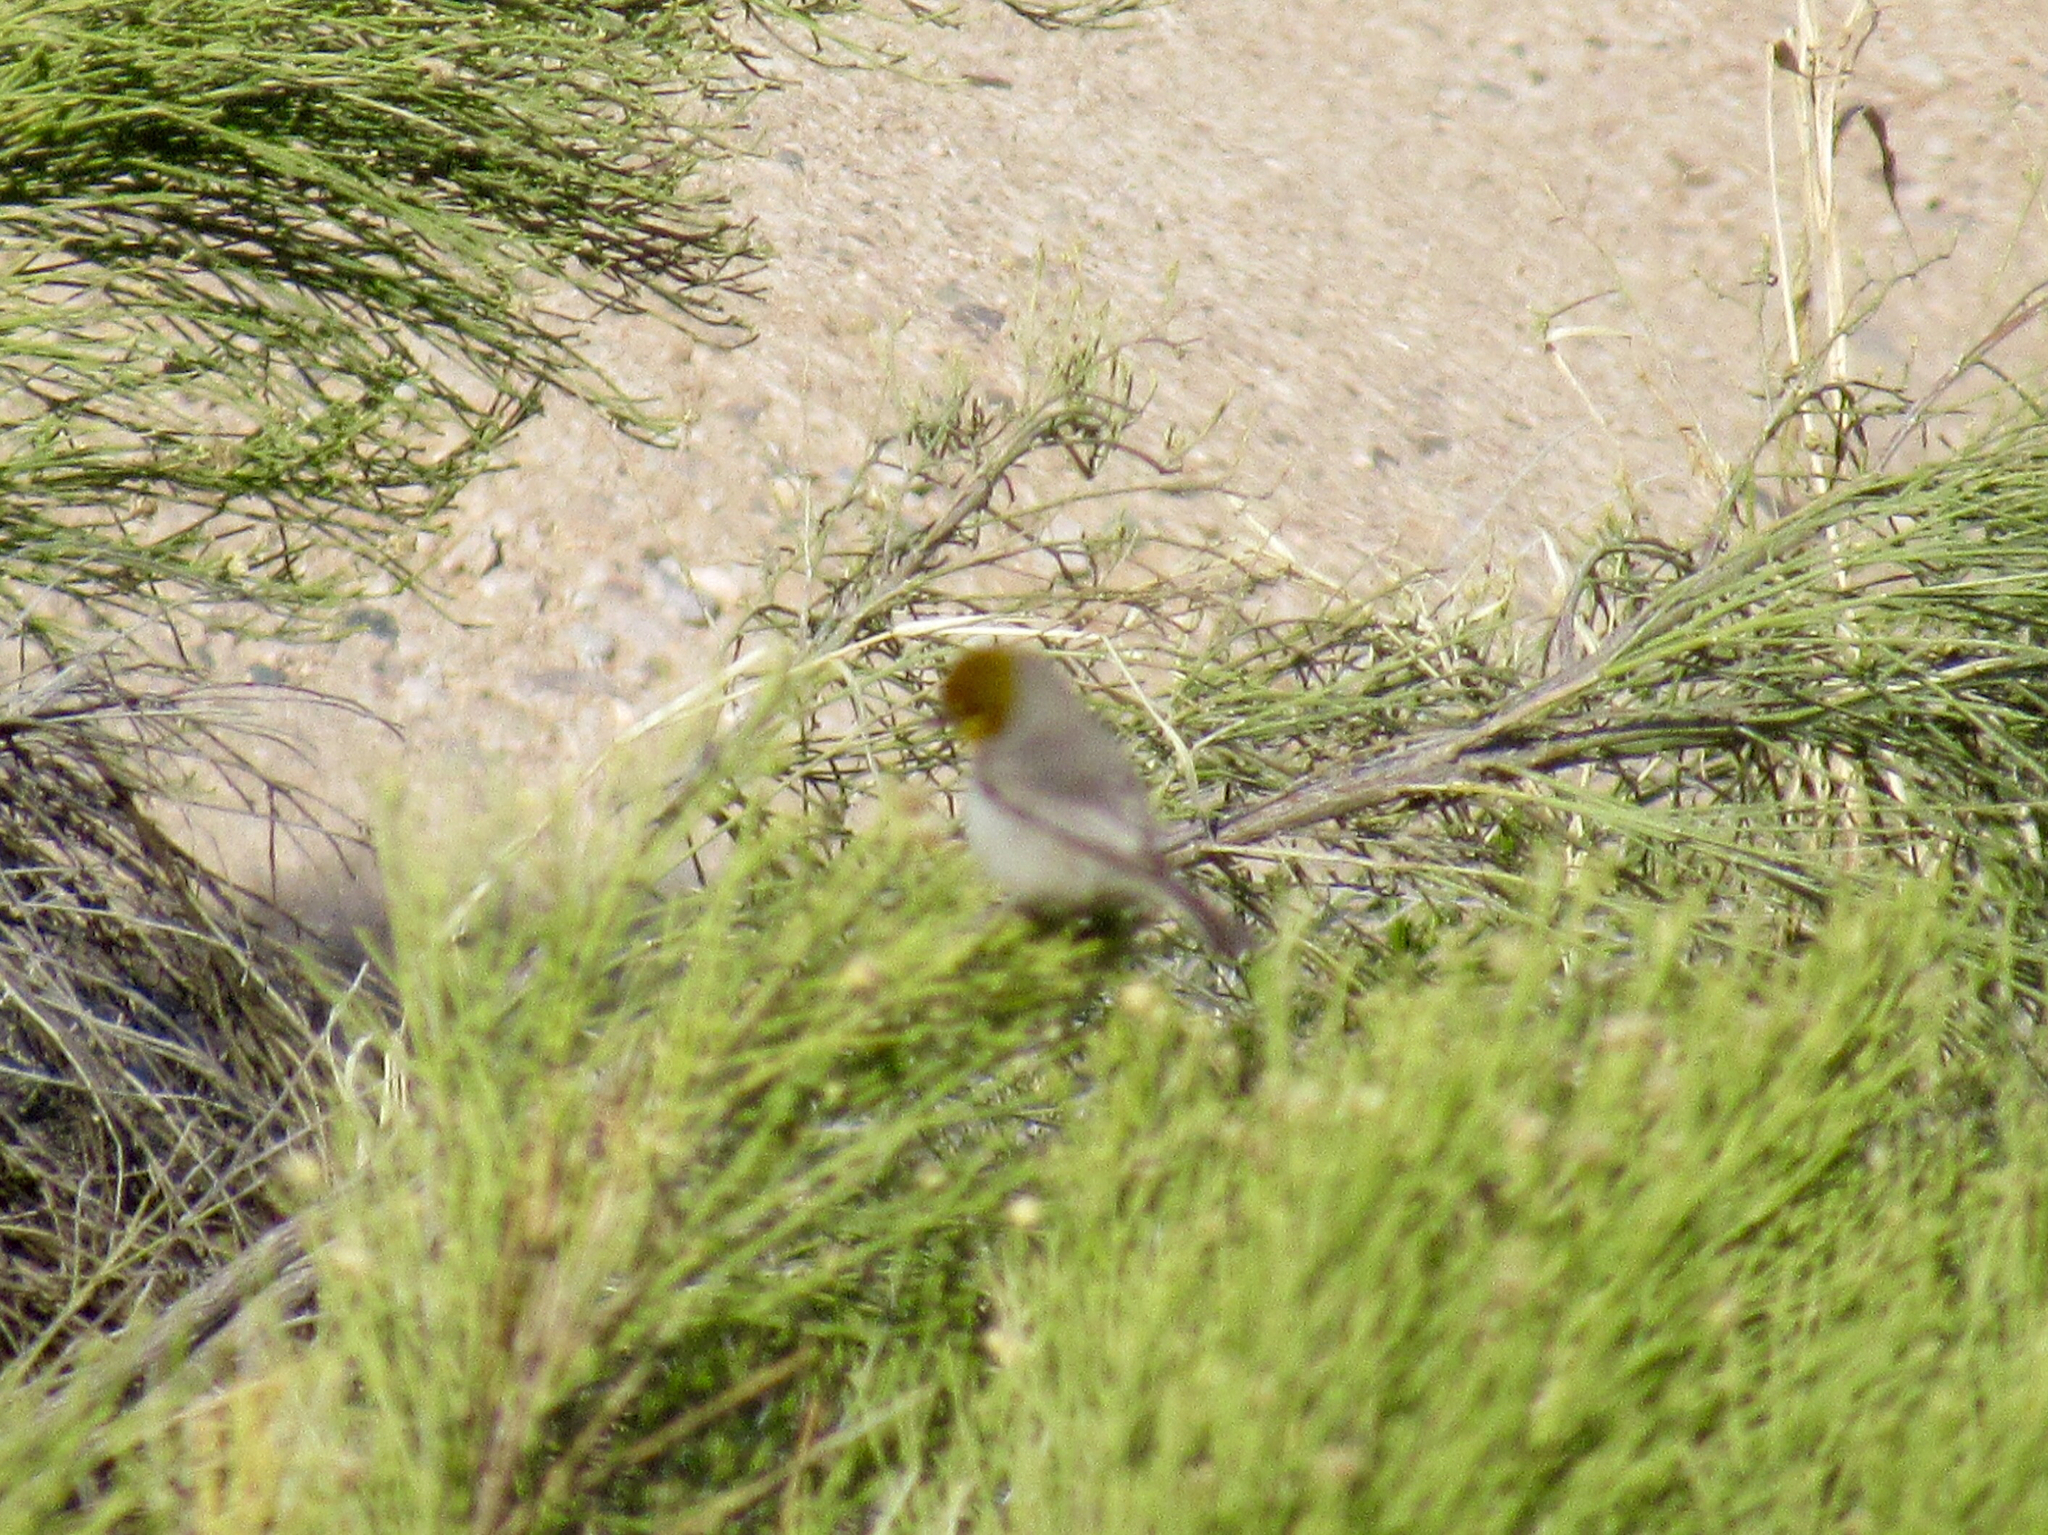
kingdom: Animalia
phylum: Chordata
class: Aves
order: Passeriformes
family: Remizidae
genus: Auriparus
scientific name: Auriparus flaviceps
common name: Verdin
